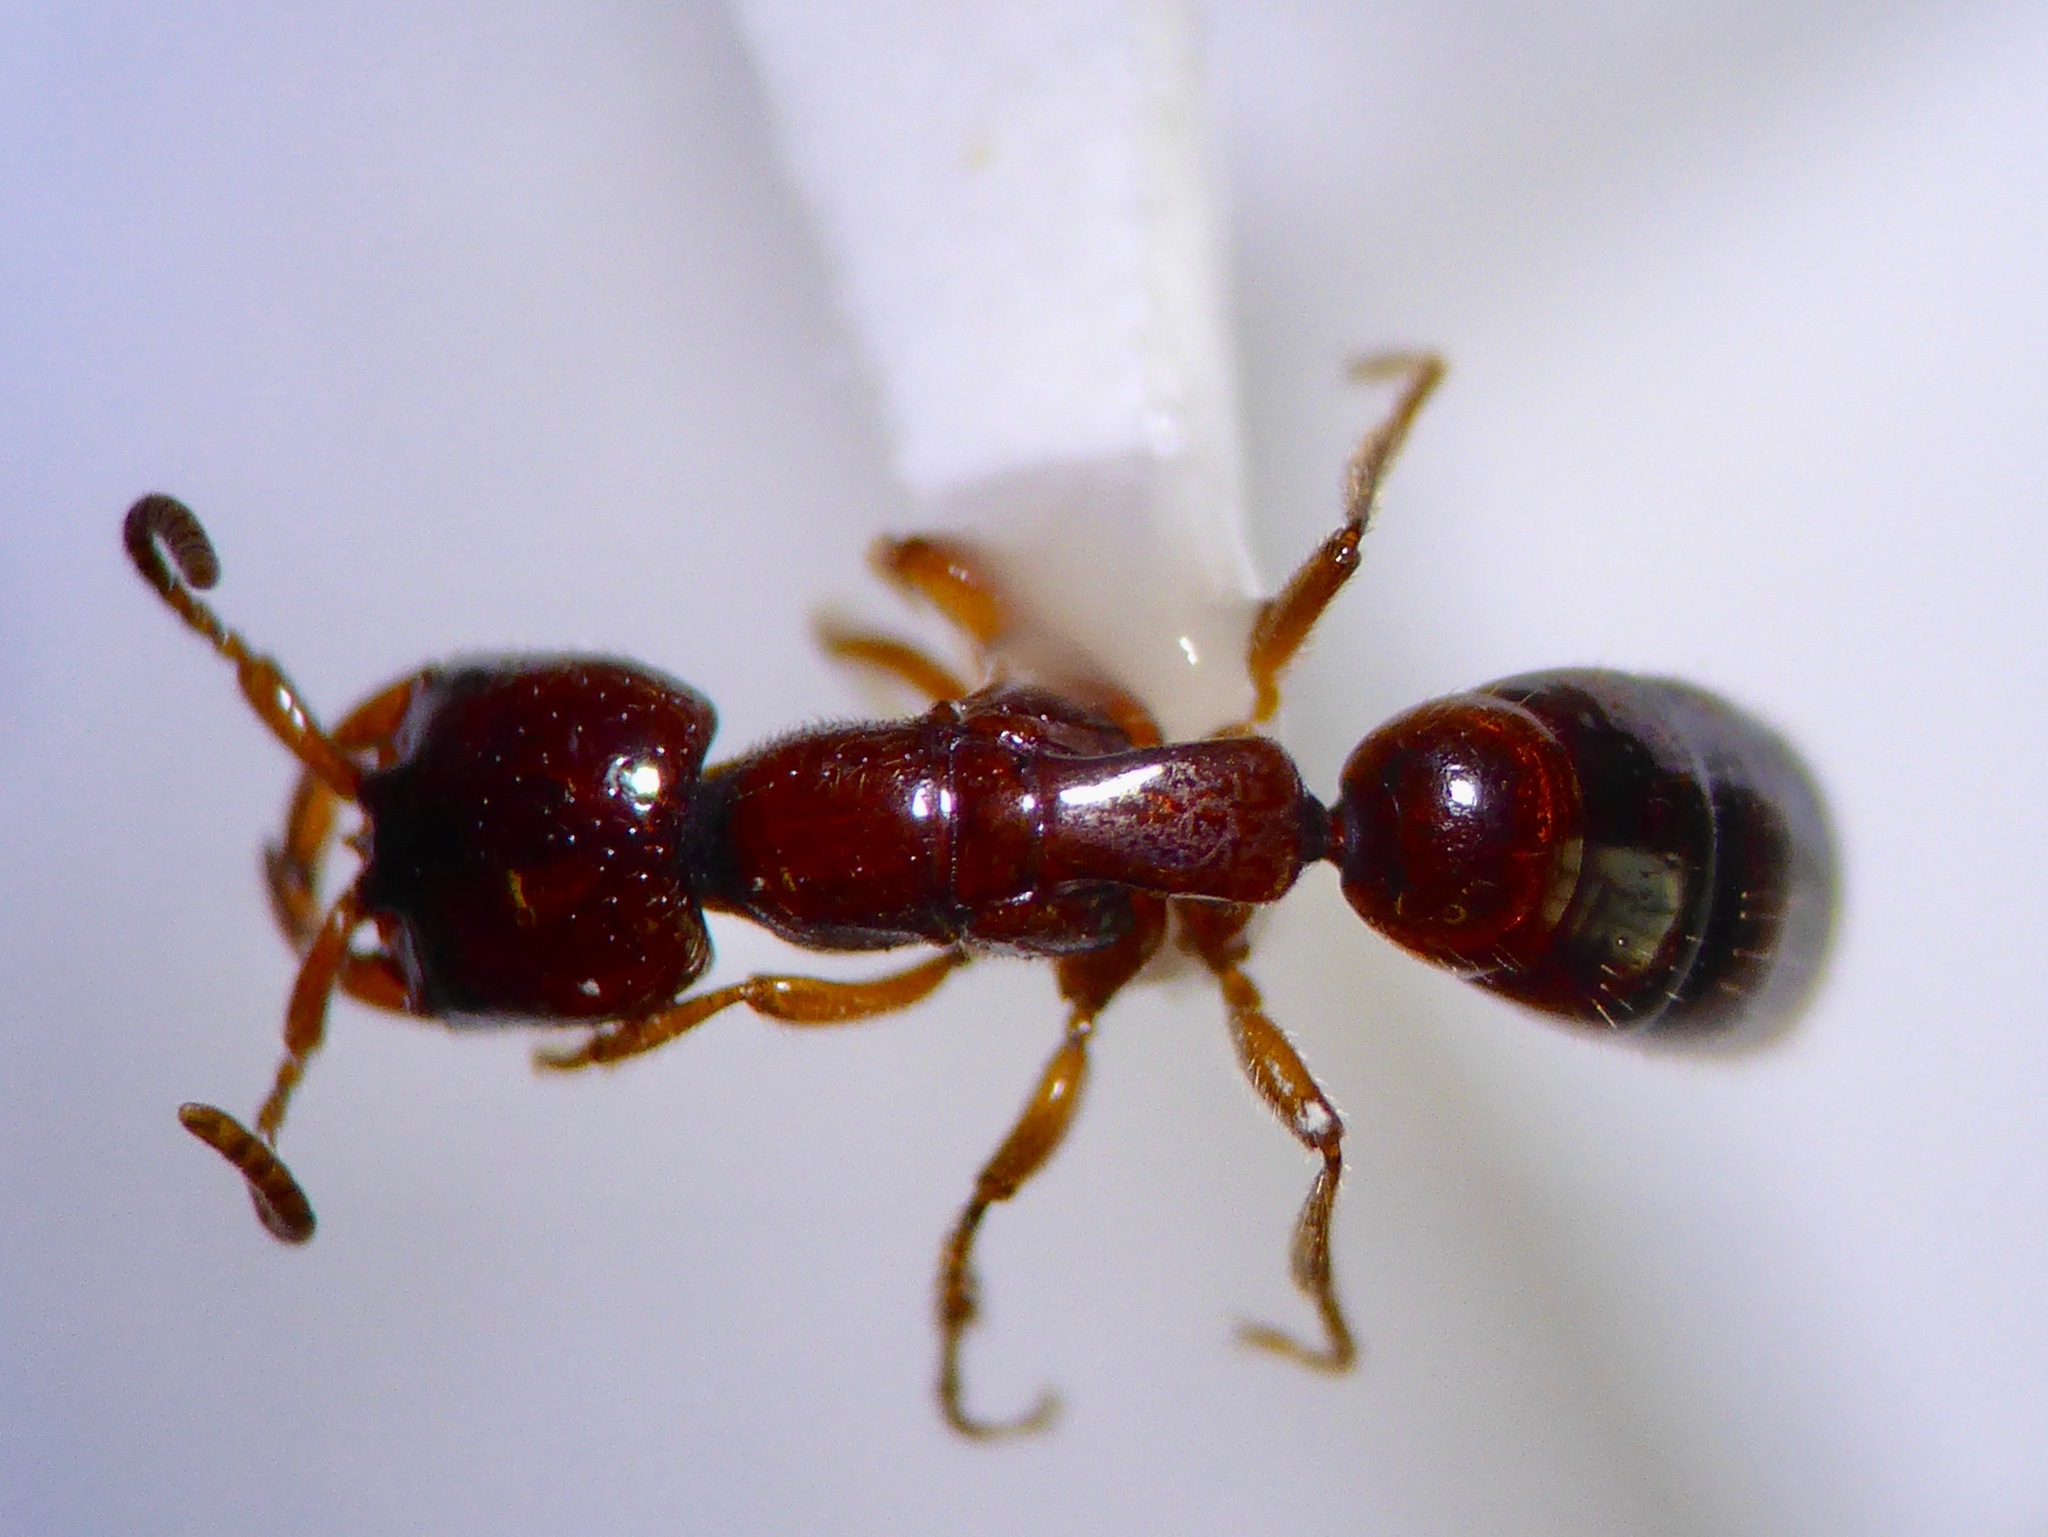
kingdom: Animalia
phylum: Arthropoda
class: Insecta
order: Hymenoptera
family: Tiphiidae
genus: Eirone
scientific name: Eirone
